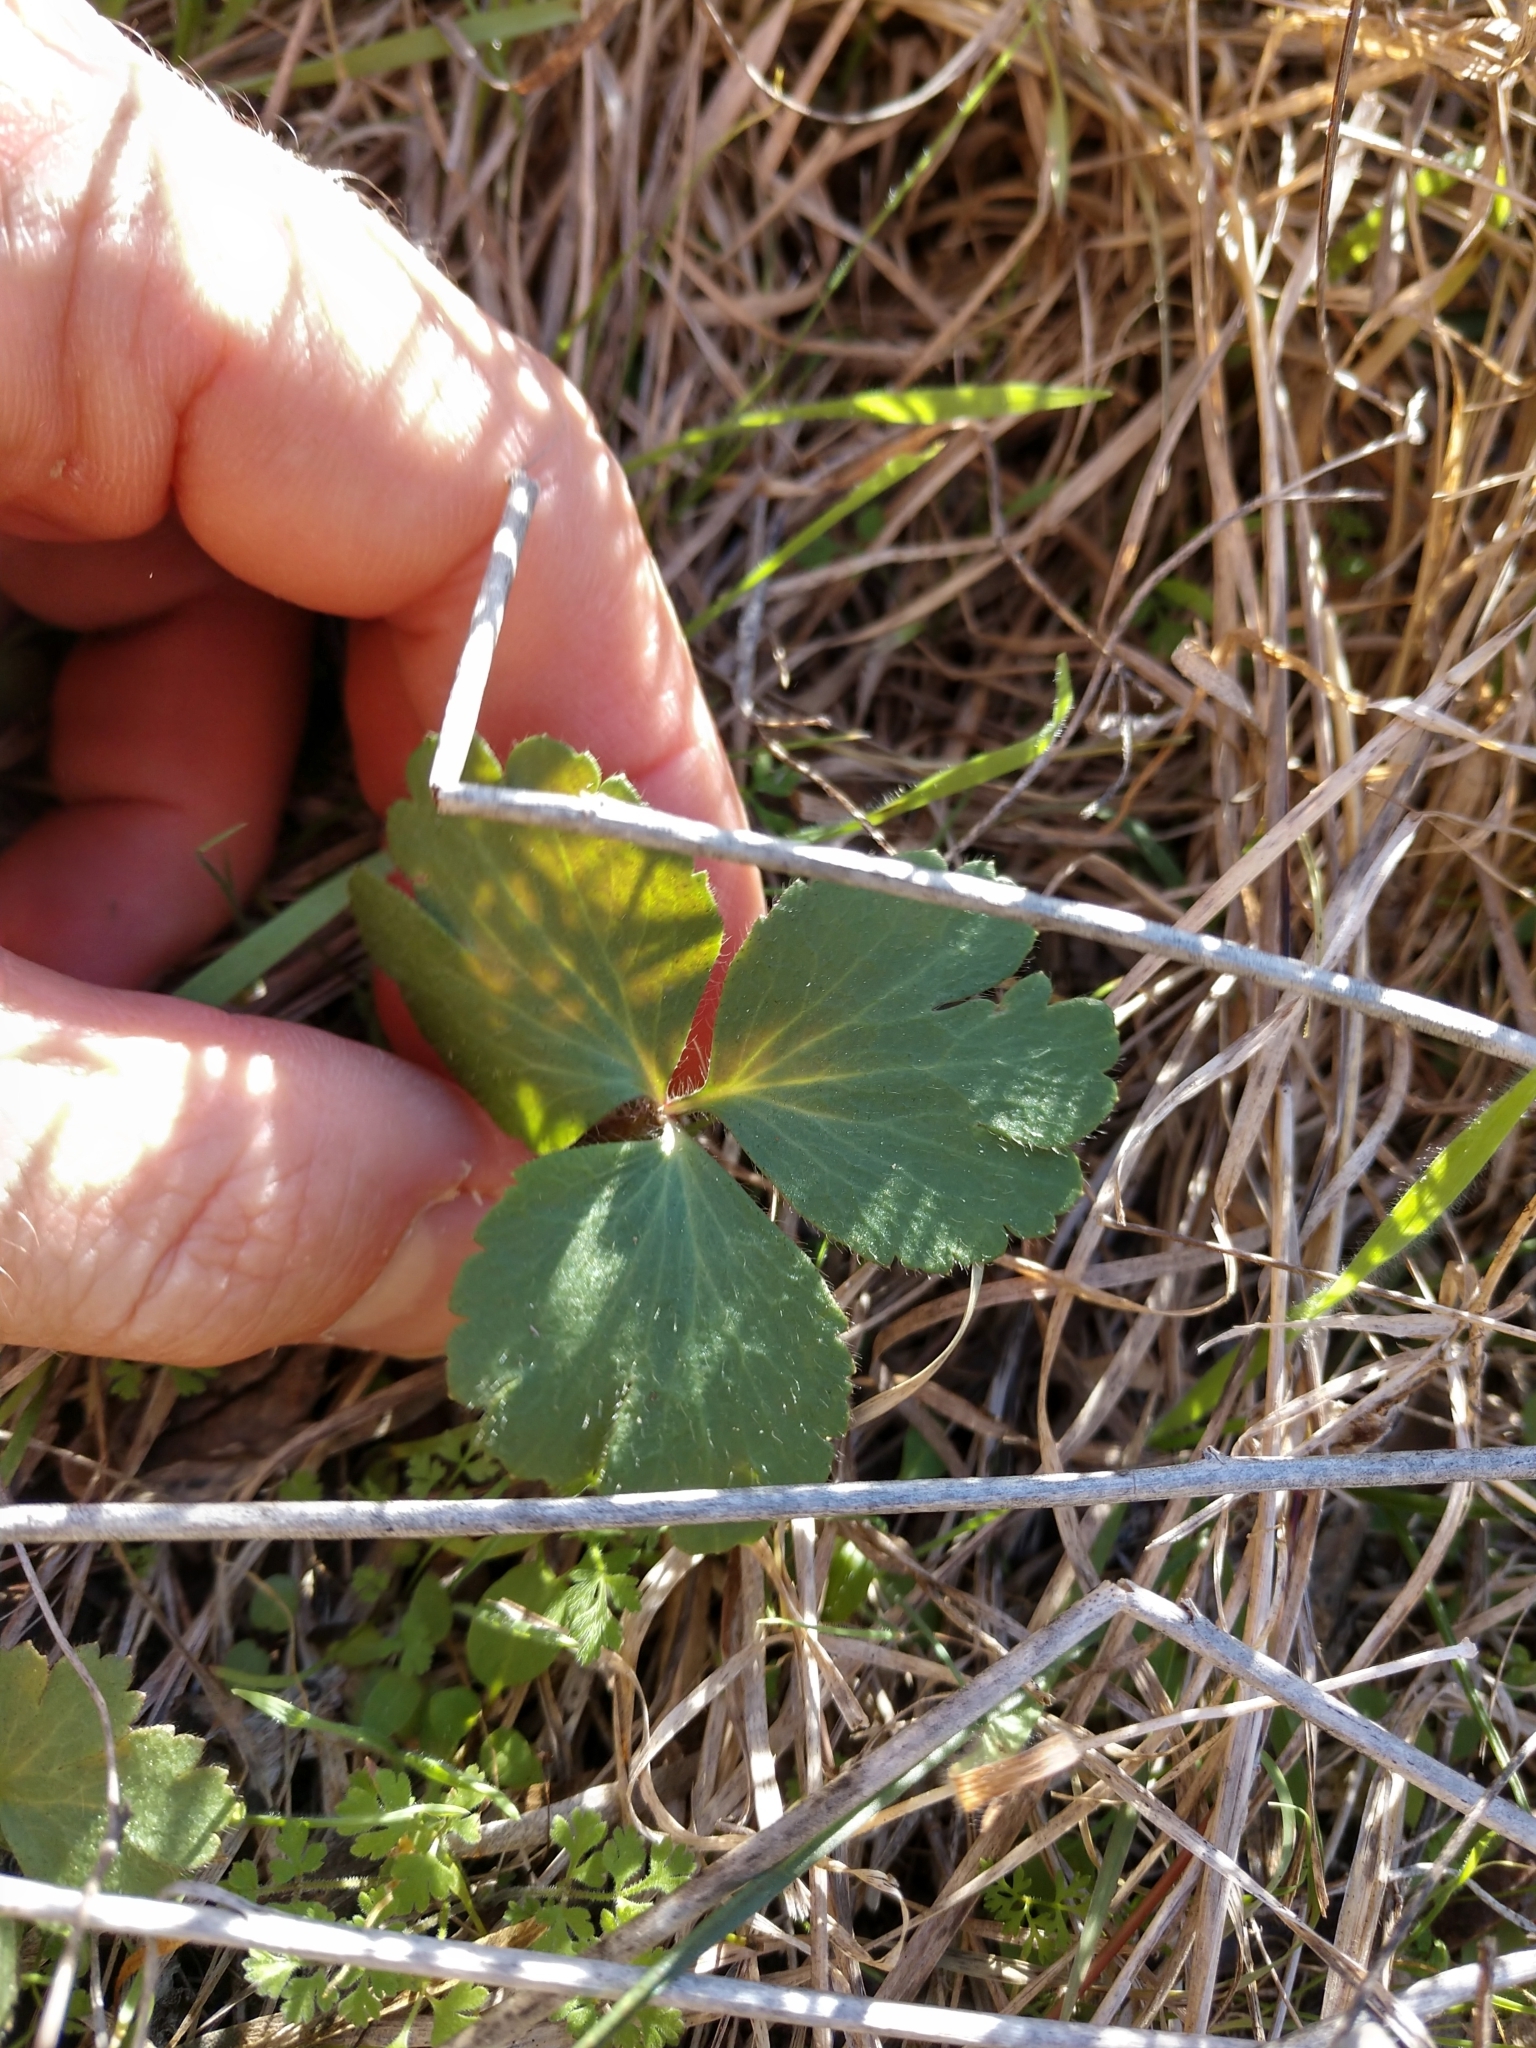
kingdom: Plantae
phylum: Tracheophyta
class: Magnoliopsida
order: Ranunculales
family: Ranunculaceae
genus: Anemone
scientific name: Anemone berlandieri
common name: Ten-petal anemone
